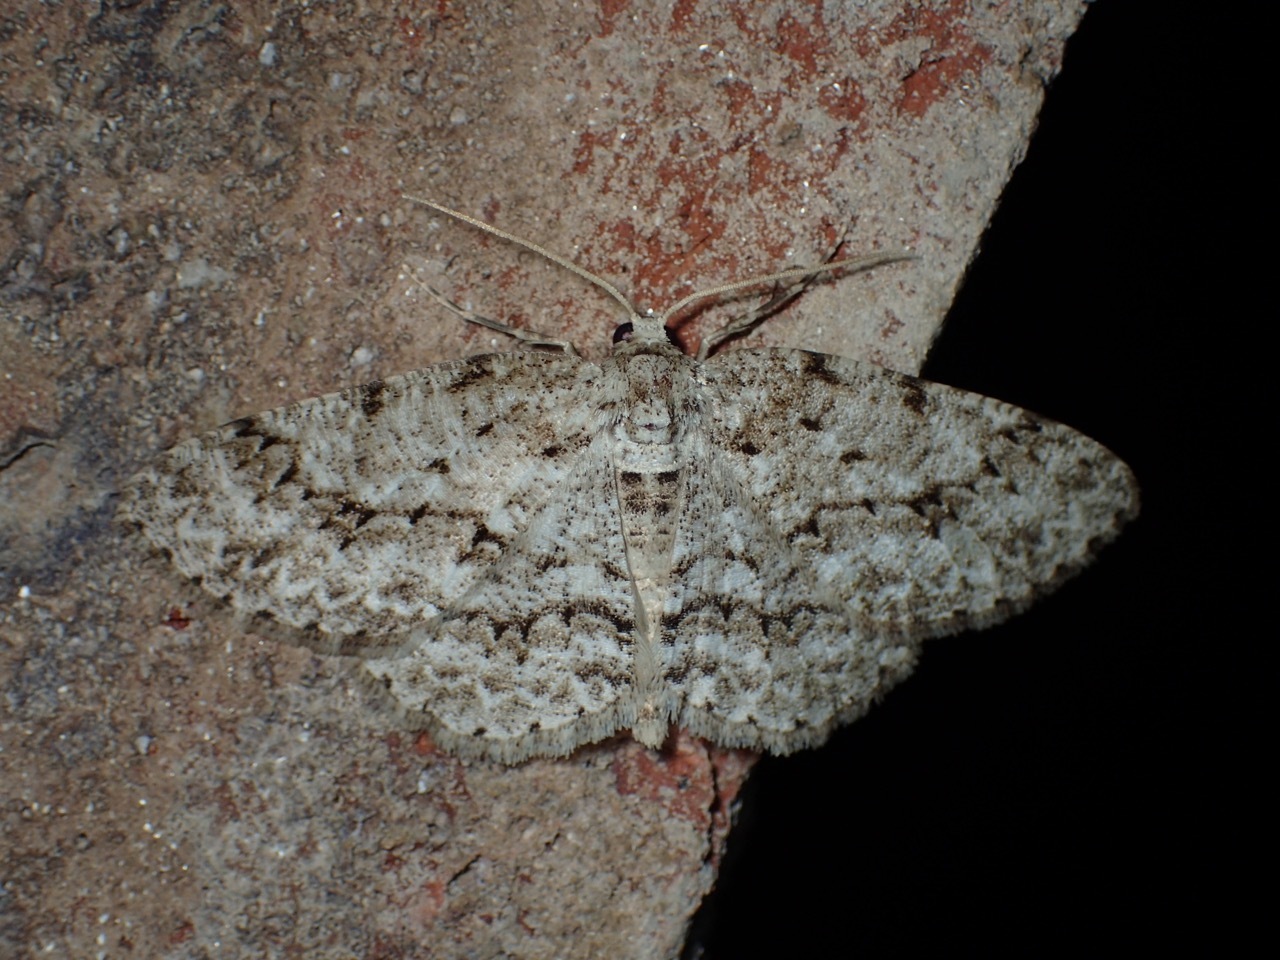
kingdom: Animalia
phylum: Arthropoda
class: Insecta
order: Lepidoptera
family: Geometridae
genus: Ectropis
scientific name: Ectropis crepuscularia
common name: Engrailed
